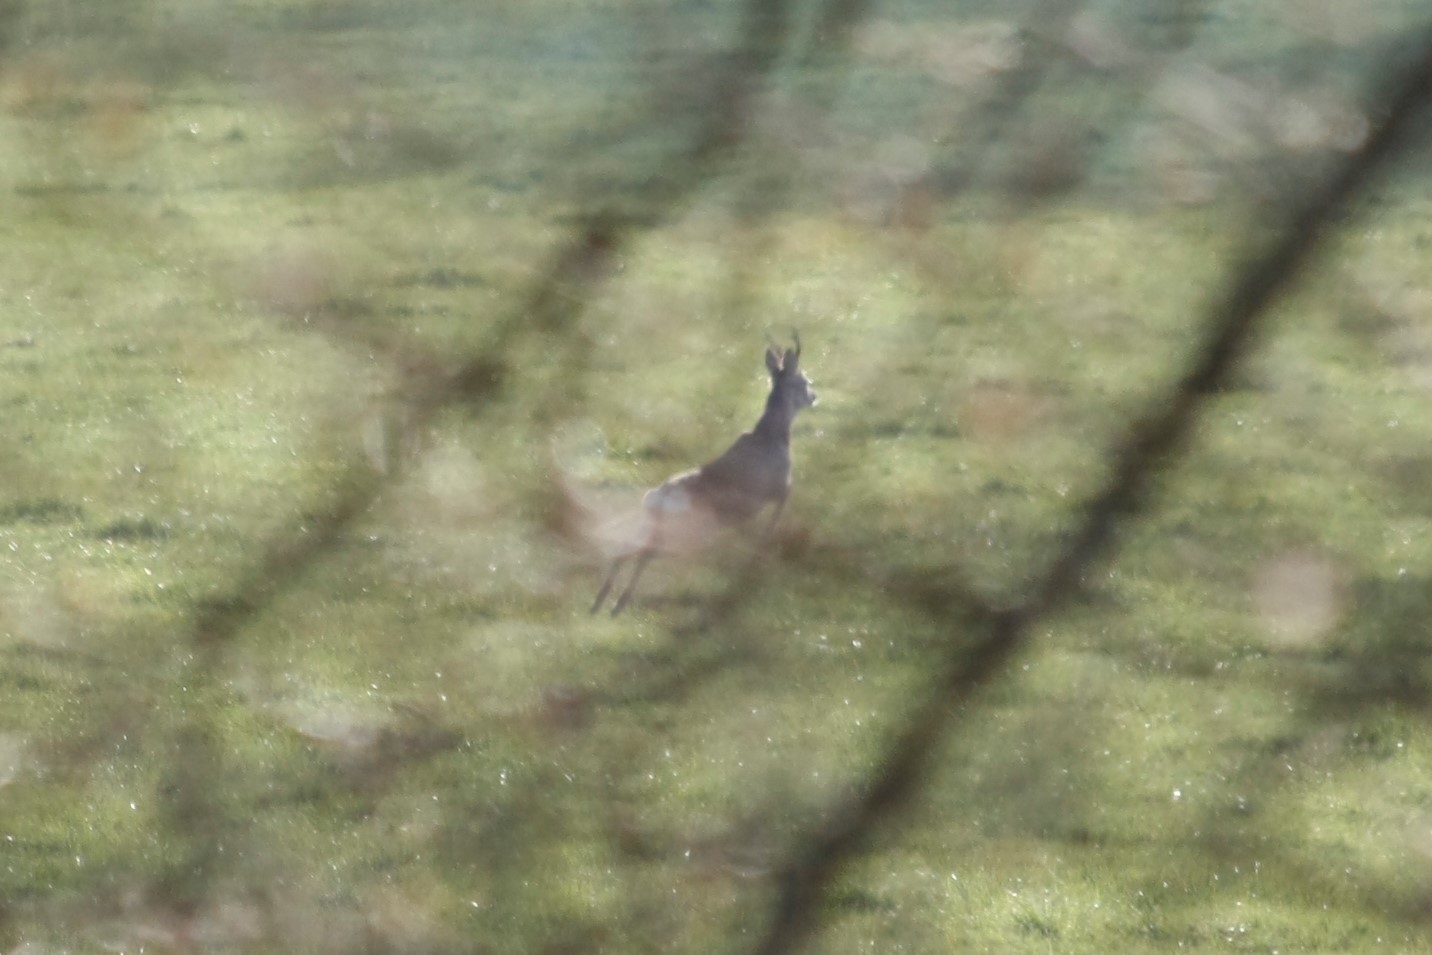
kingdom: Animalia
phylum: Chordata
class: Mammalia
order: Artiodactyla
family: Cervidae
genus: Capreolus
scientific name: Capreolus capreolus
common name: Western roe deer
